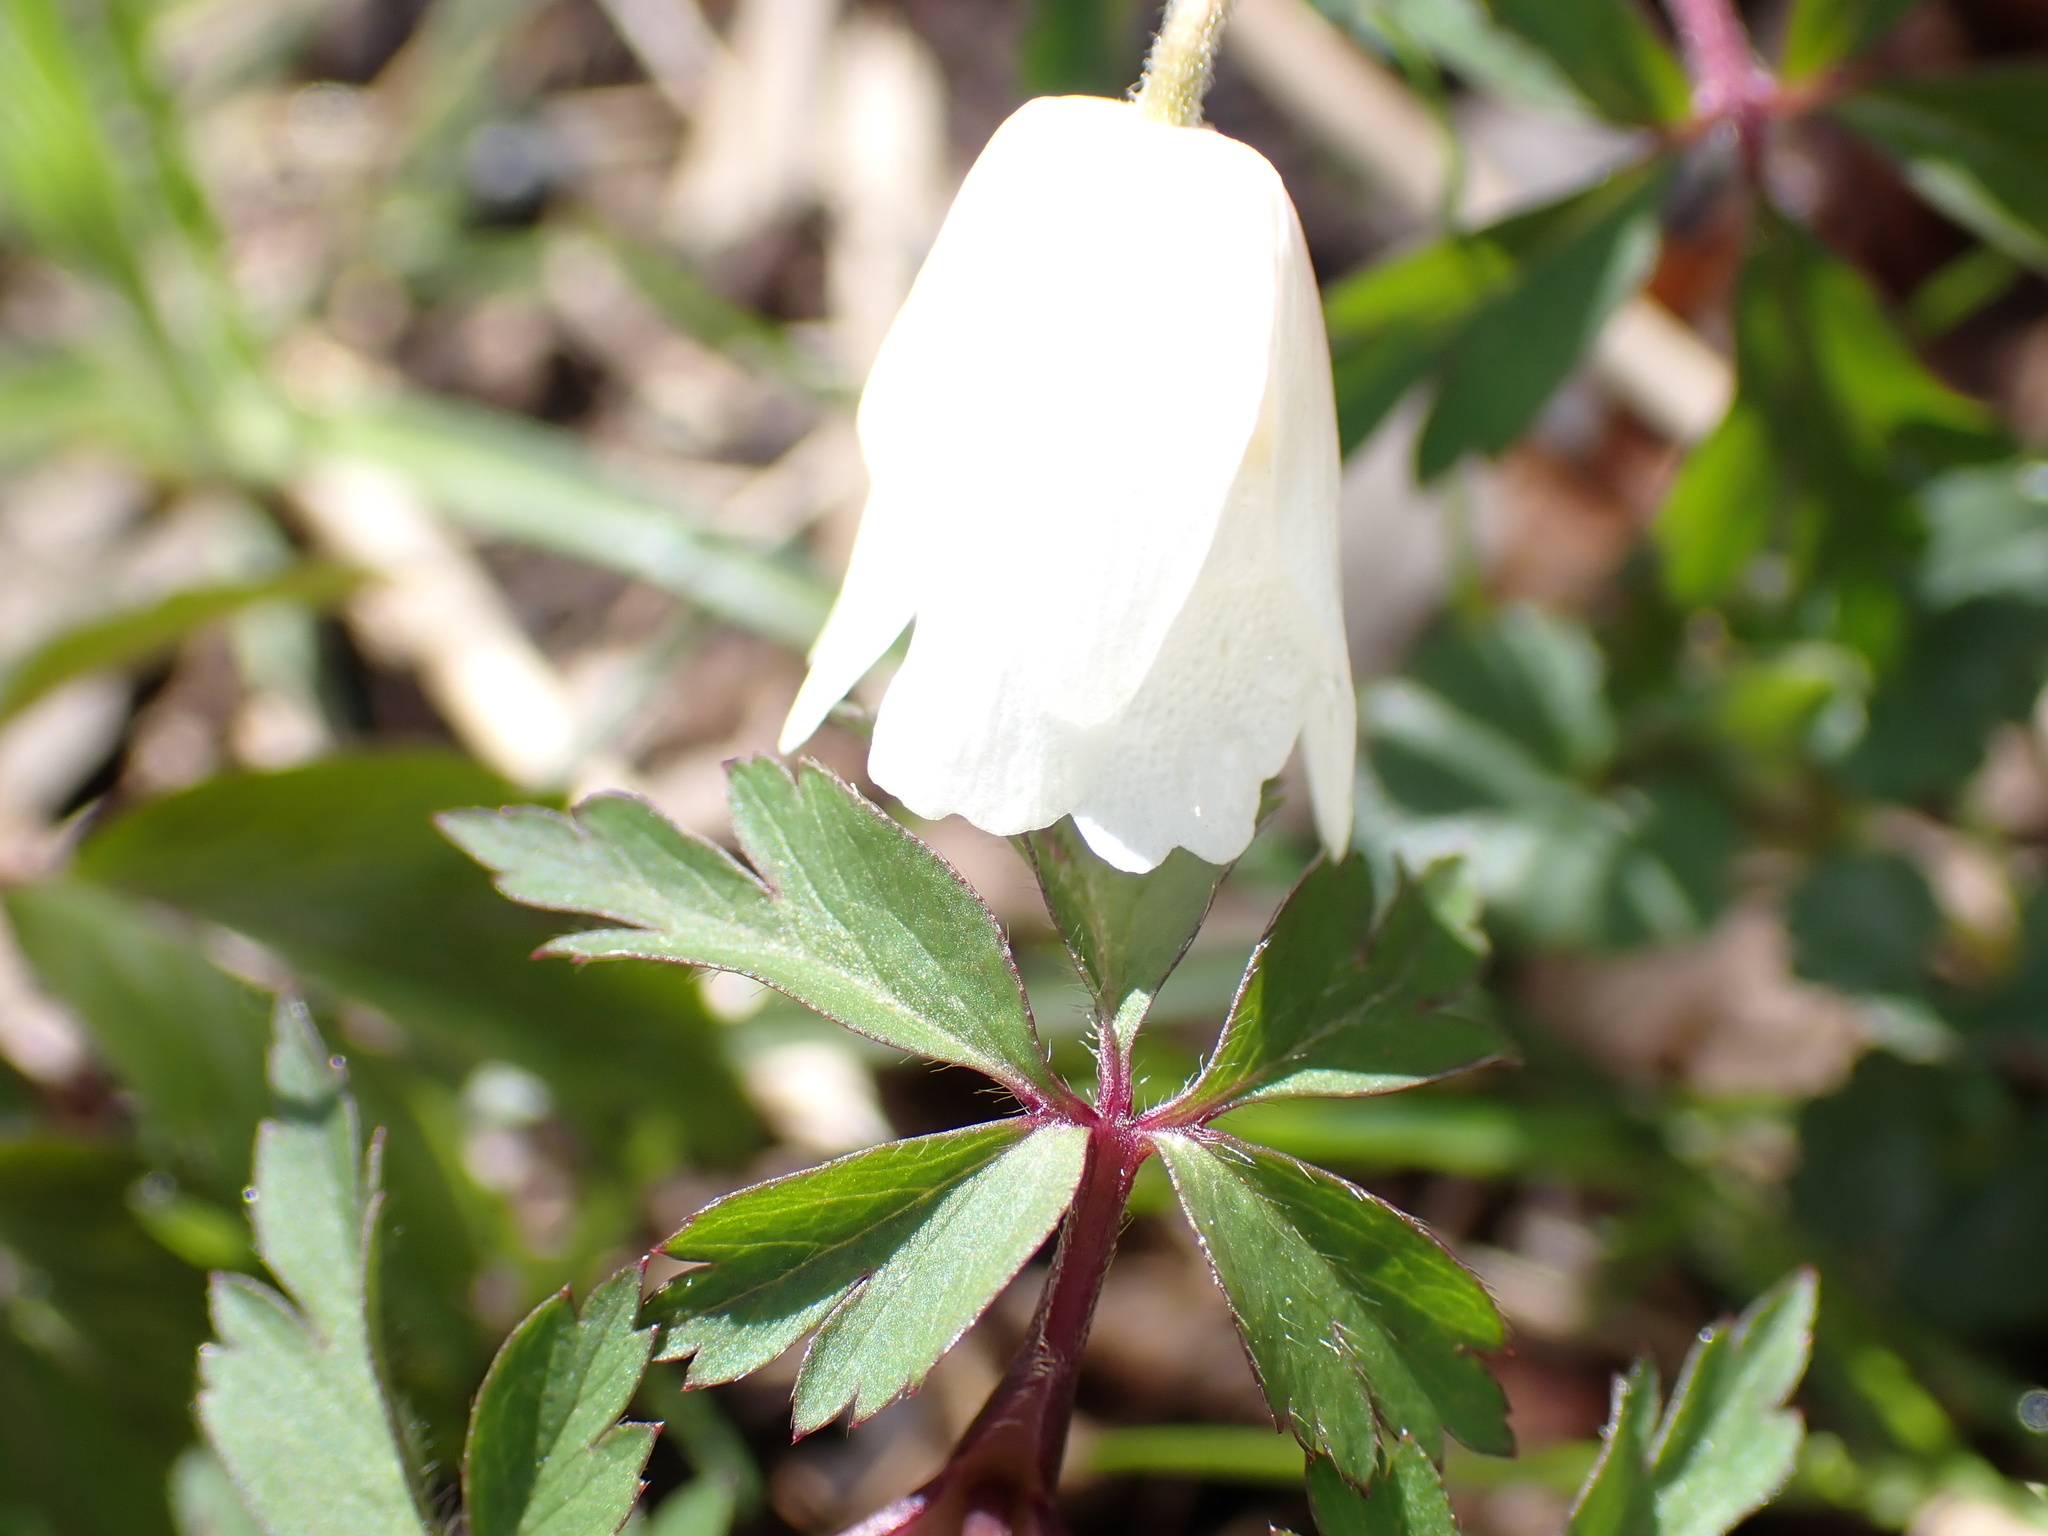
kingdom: Plantae
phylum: Tracheophyta
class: Magnoliopsida
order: Ranunculales
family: Ranunculaceae
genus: Anemone
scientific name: Anemone nemorosa
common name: Wood anemone
